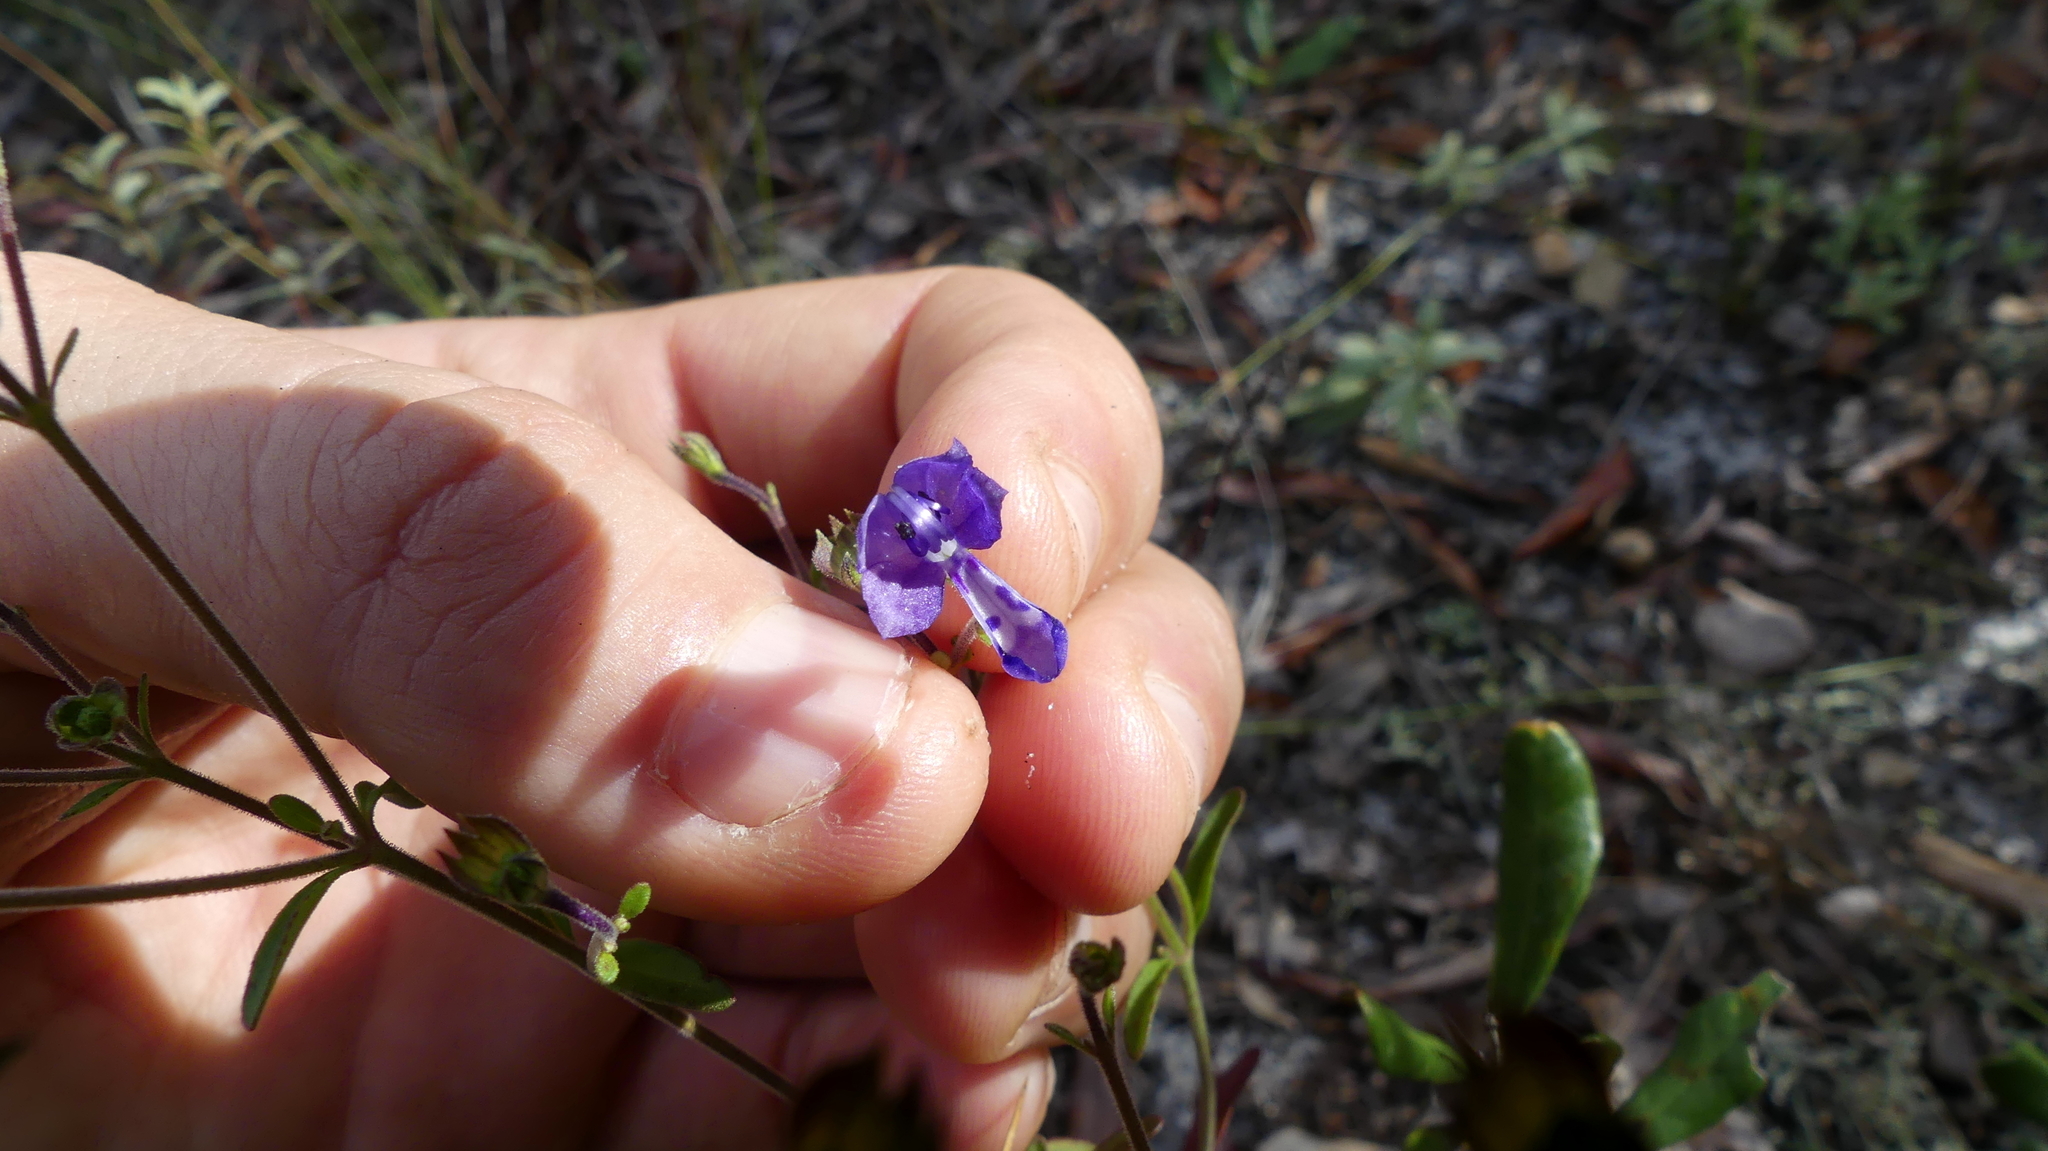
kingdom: Plantae
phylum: Tracheophyta
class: Magnoliopsida
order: Lamiales
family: Lamiaceae
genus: Trichostema
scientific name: Trichostema gracile
